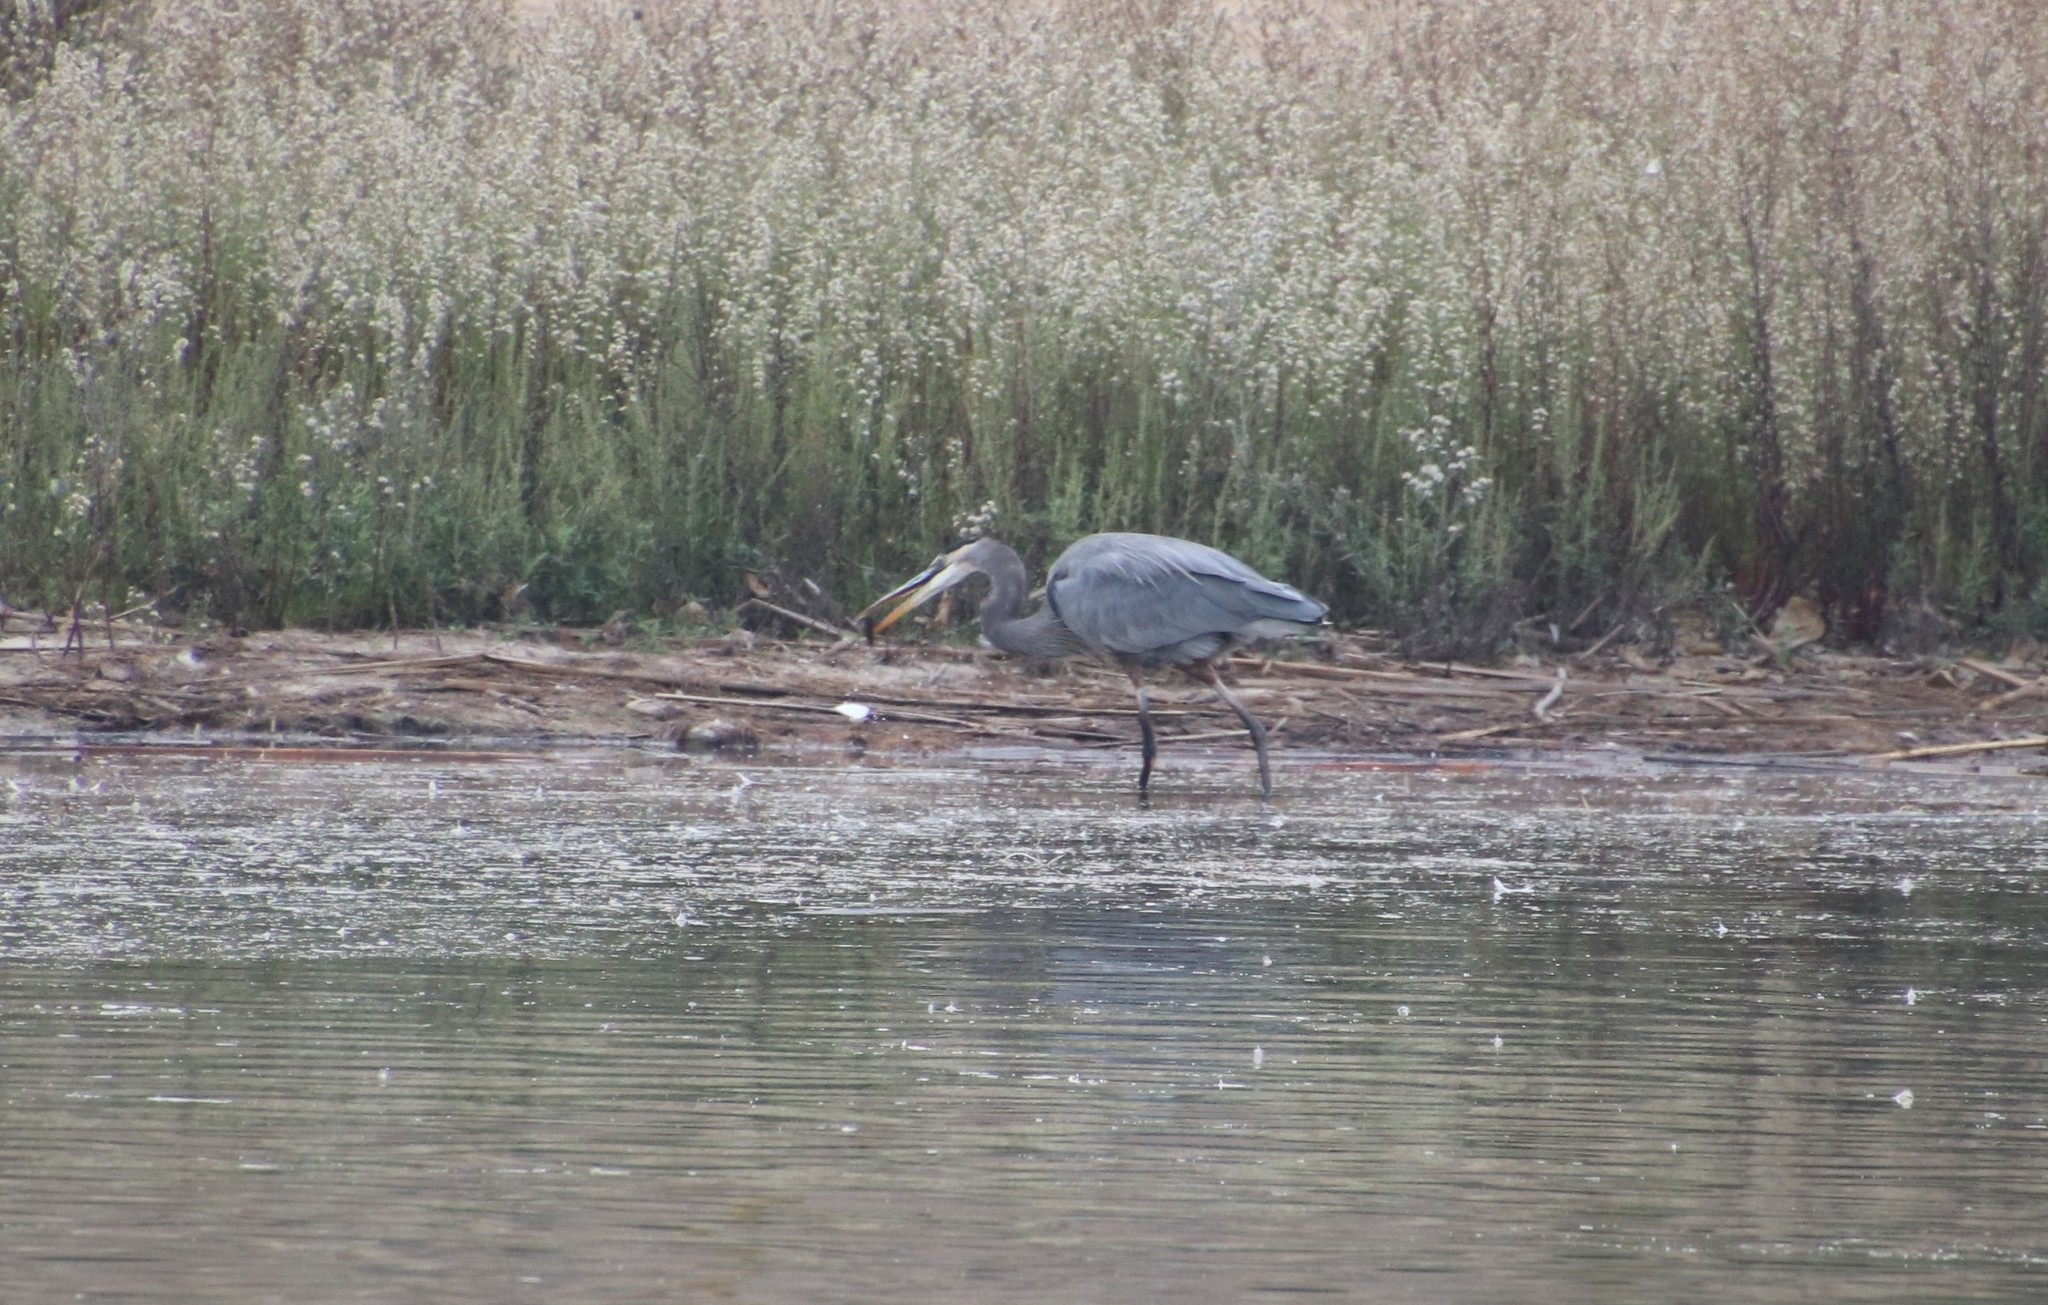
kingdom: Animalia
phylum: Chordata
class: Aves
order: Pelecaniformes
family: Ardeidae
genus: Ardea
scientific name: Ardea herodias
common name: Great blue heron
